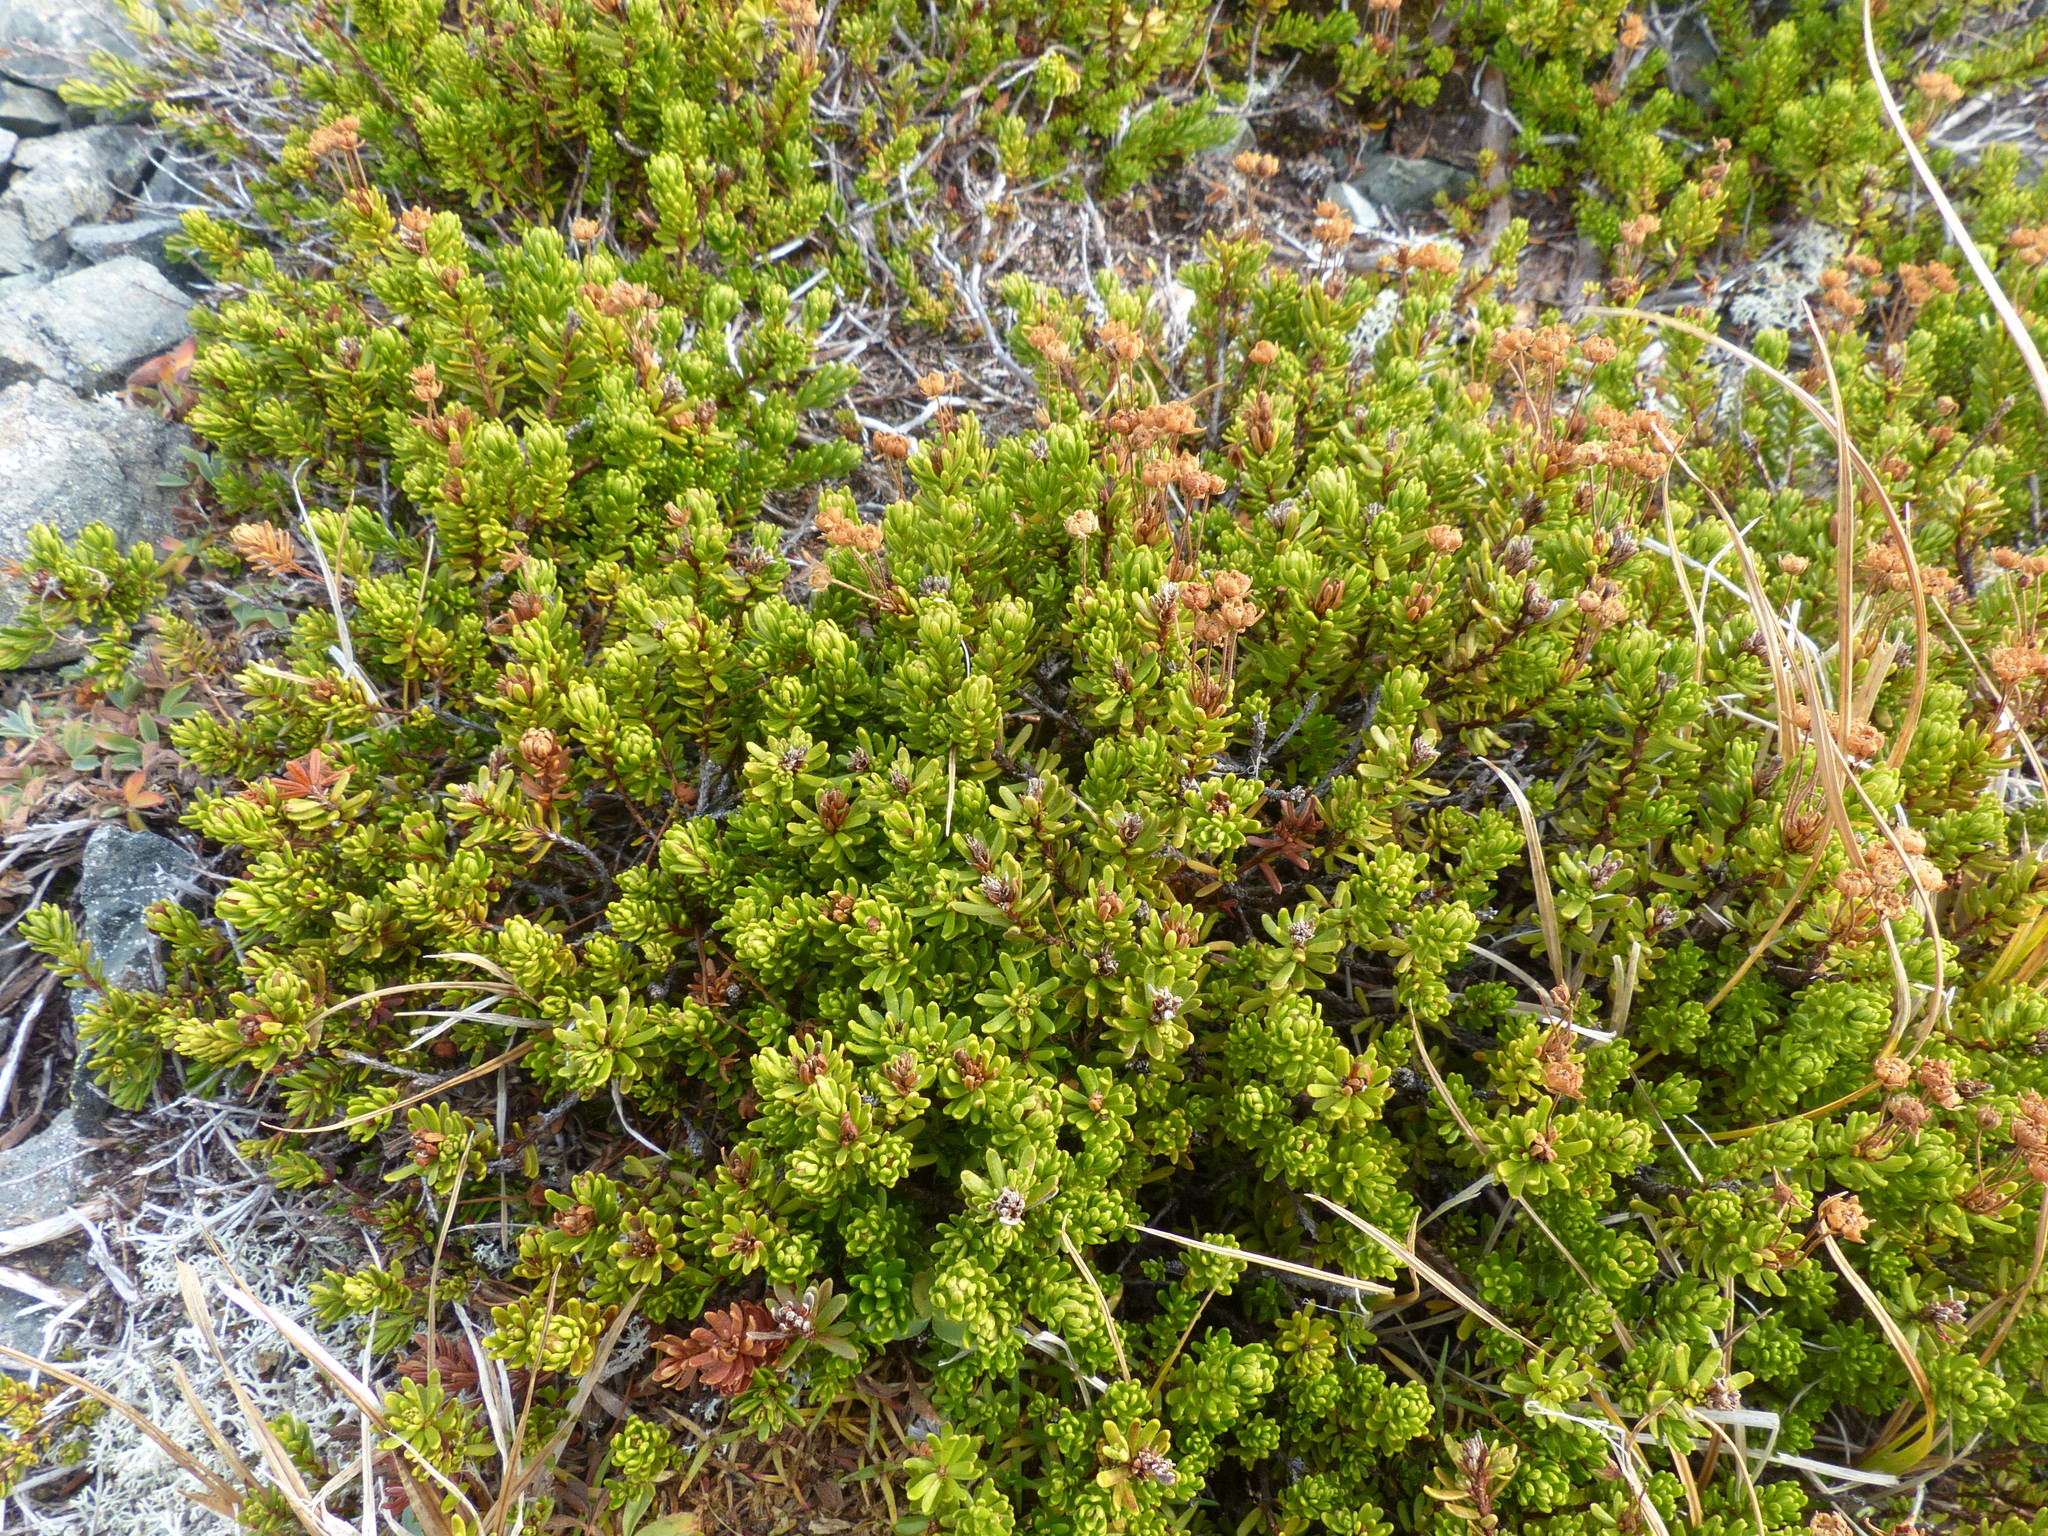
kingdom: Plantae
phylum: Tracheophyta
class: Magnoliopsida
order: Ericales
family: Ericaceae
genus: Phyllodoce
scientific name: Phyllodoce glanduliflora
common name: Cream mountain heather
